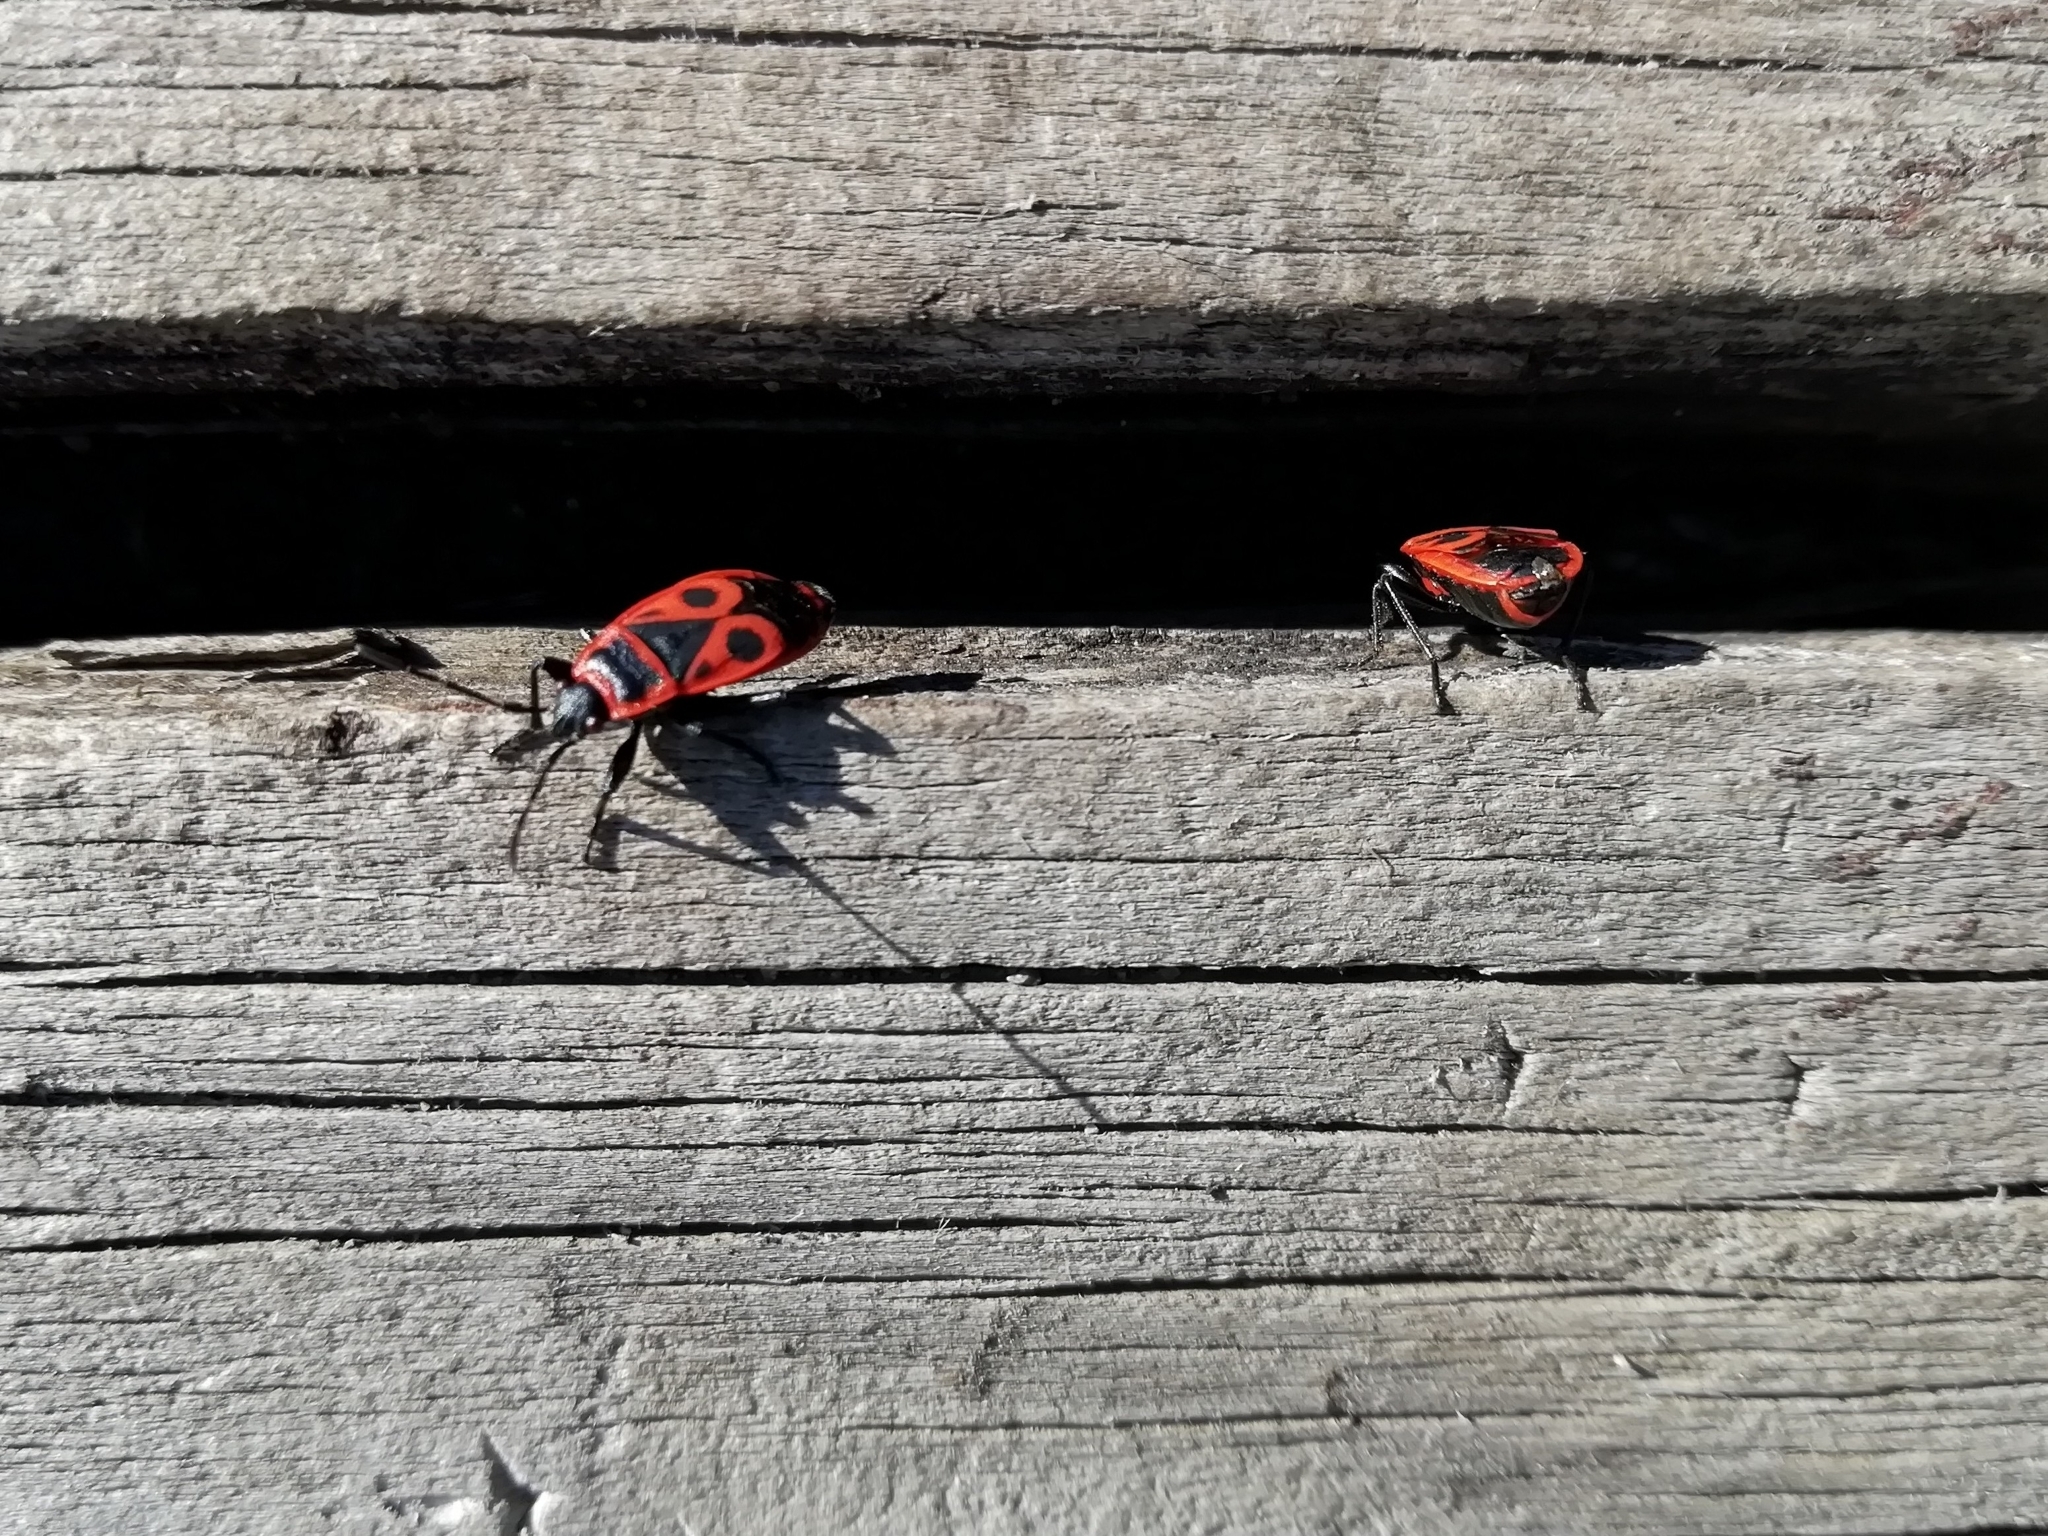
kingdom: Animalia
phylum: Arthropoda
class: Insecta
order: Hemiptera
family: Pyrrhocoridae
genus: Pyrrhocoris
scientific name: Pyrrhocoris apterus
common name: Firebug
